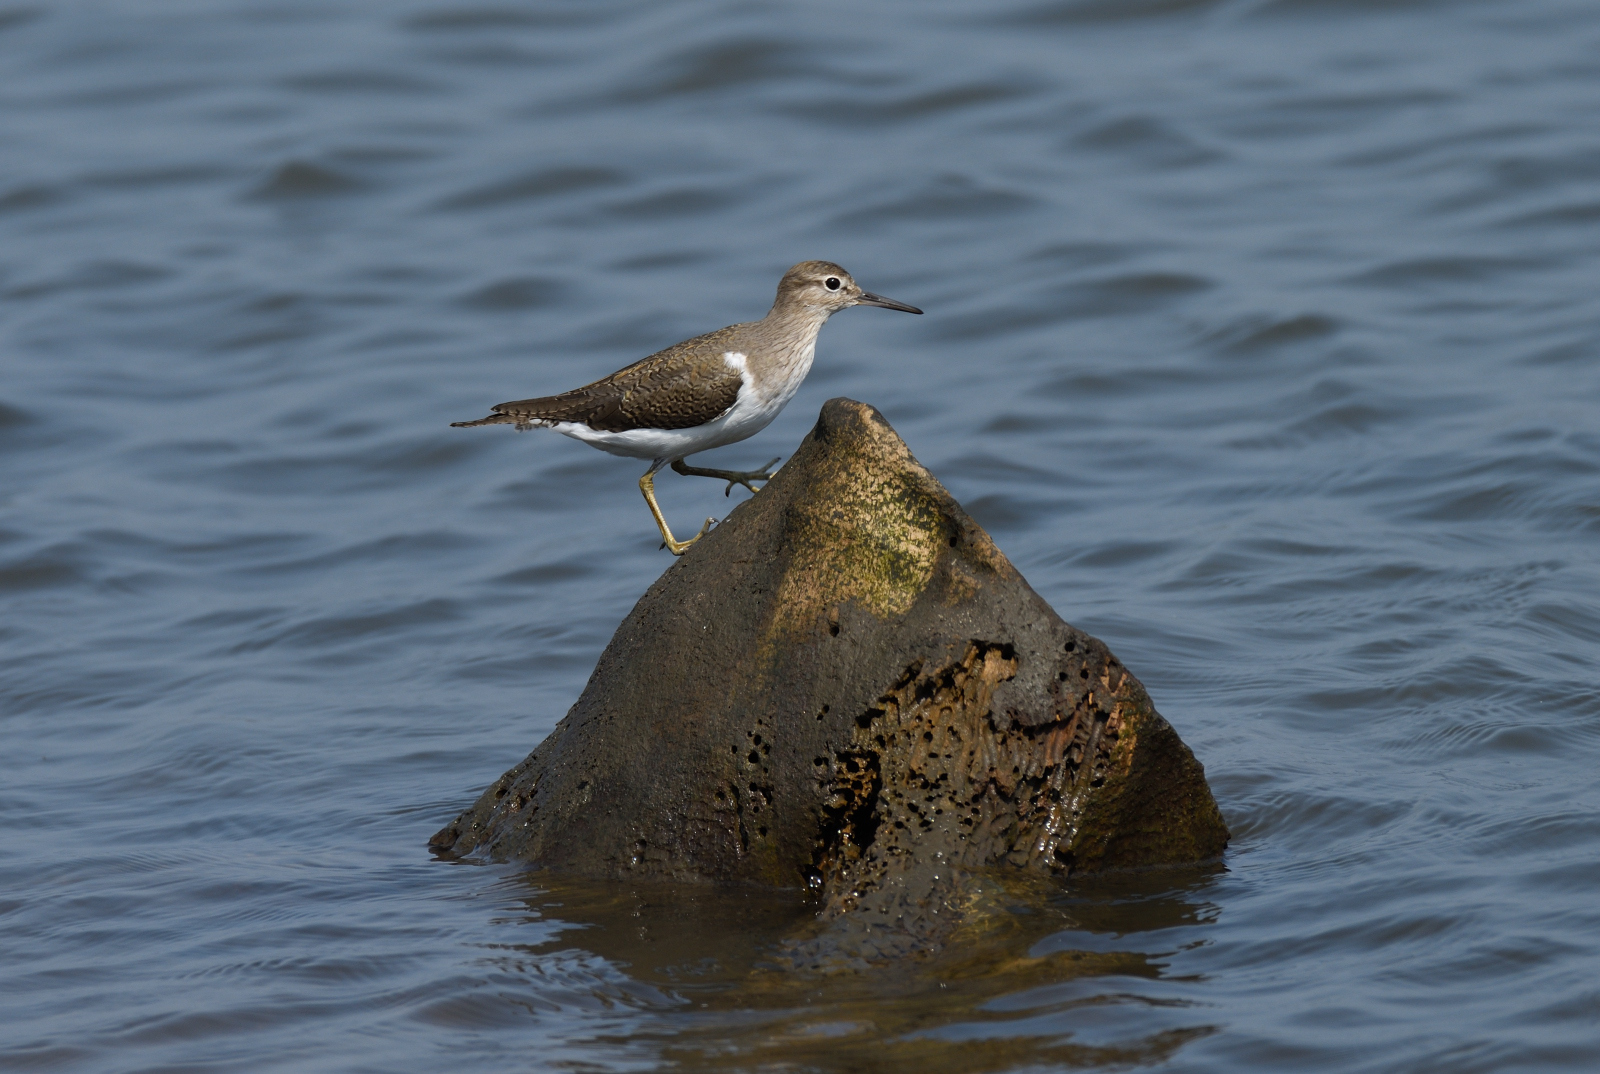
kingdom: Animalia
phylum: Chordata
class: Aves
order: Charadriiformes
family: Scolopacidae
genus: Actitis
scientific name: Actitis hypoleucos
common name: Common sandpiper
